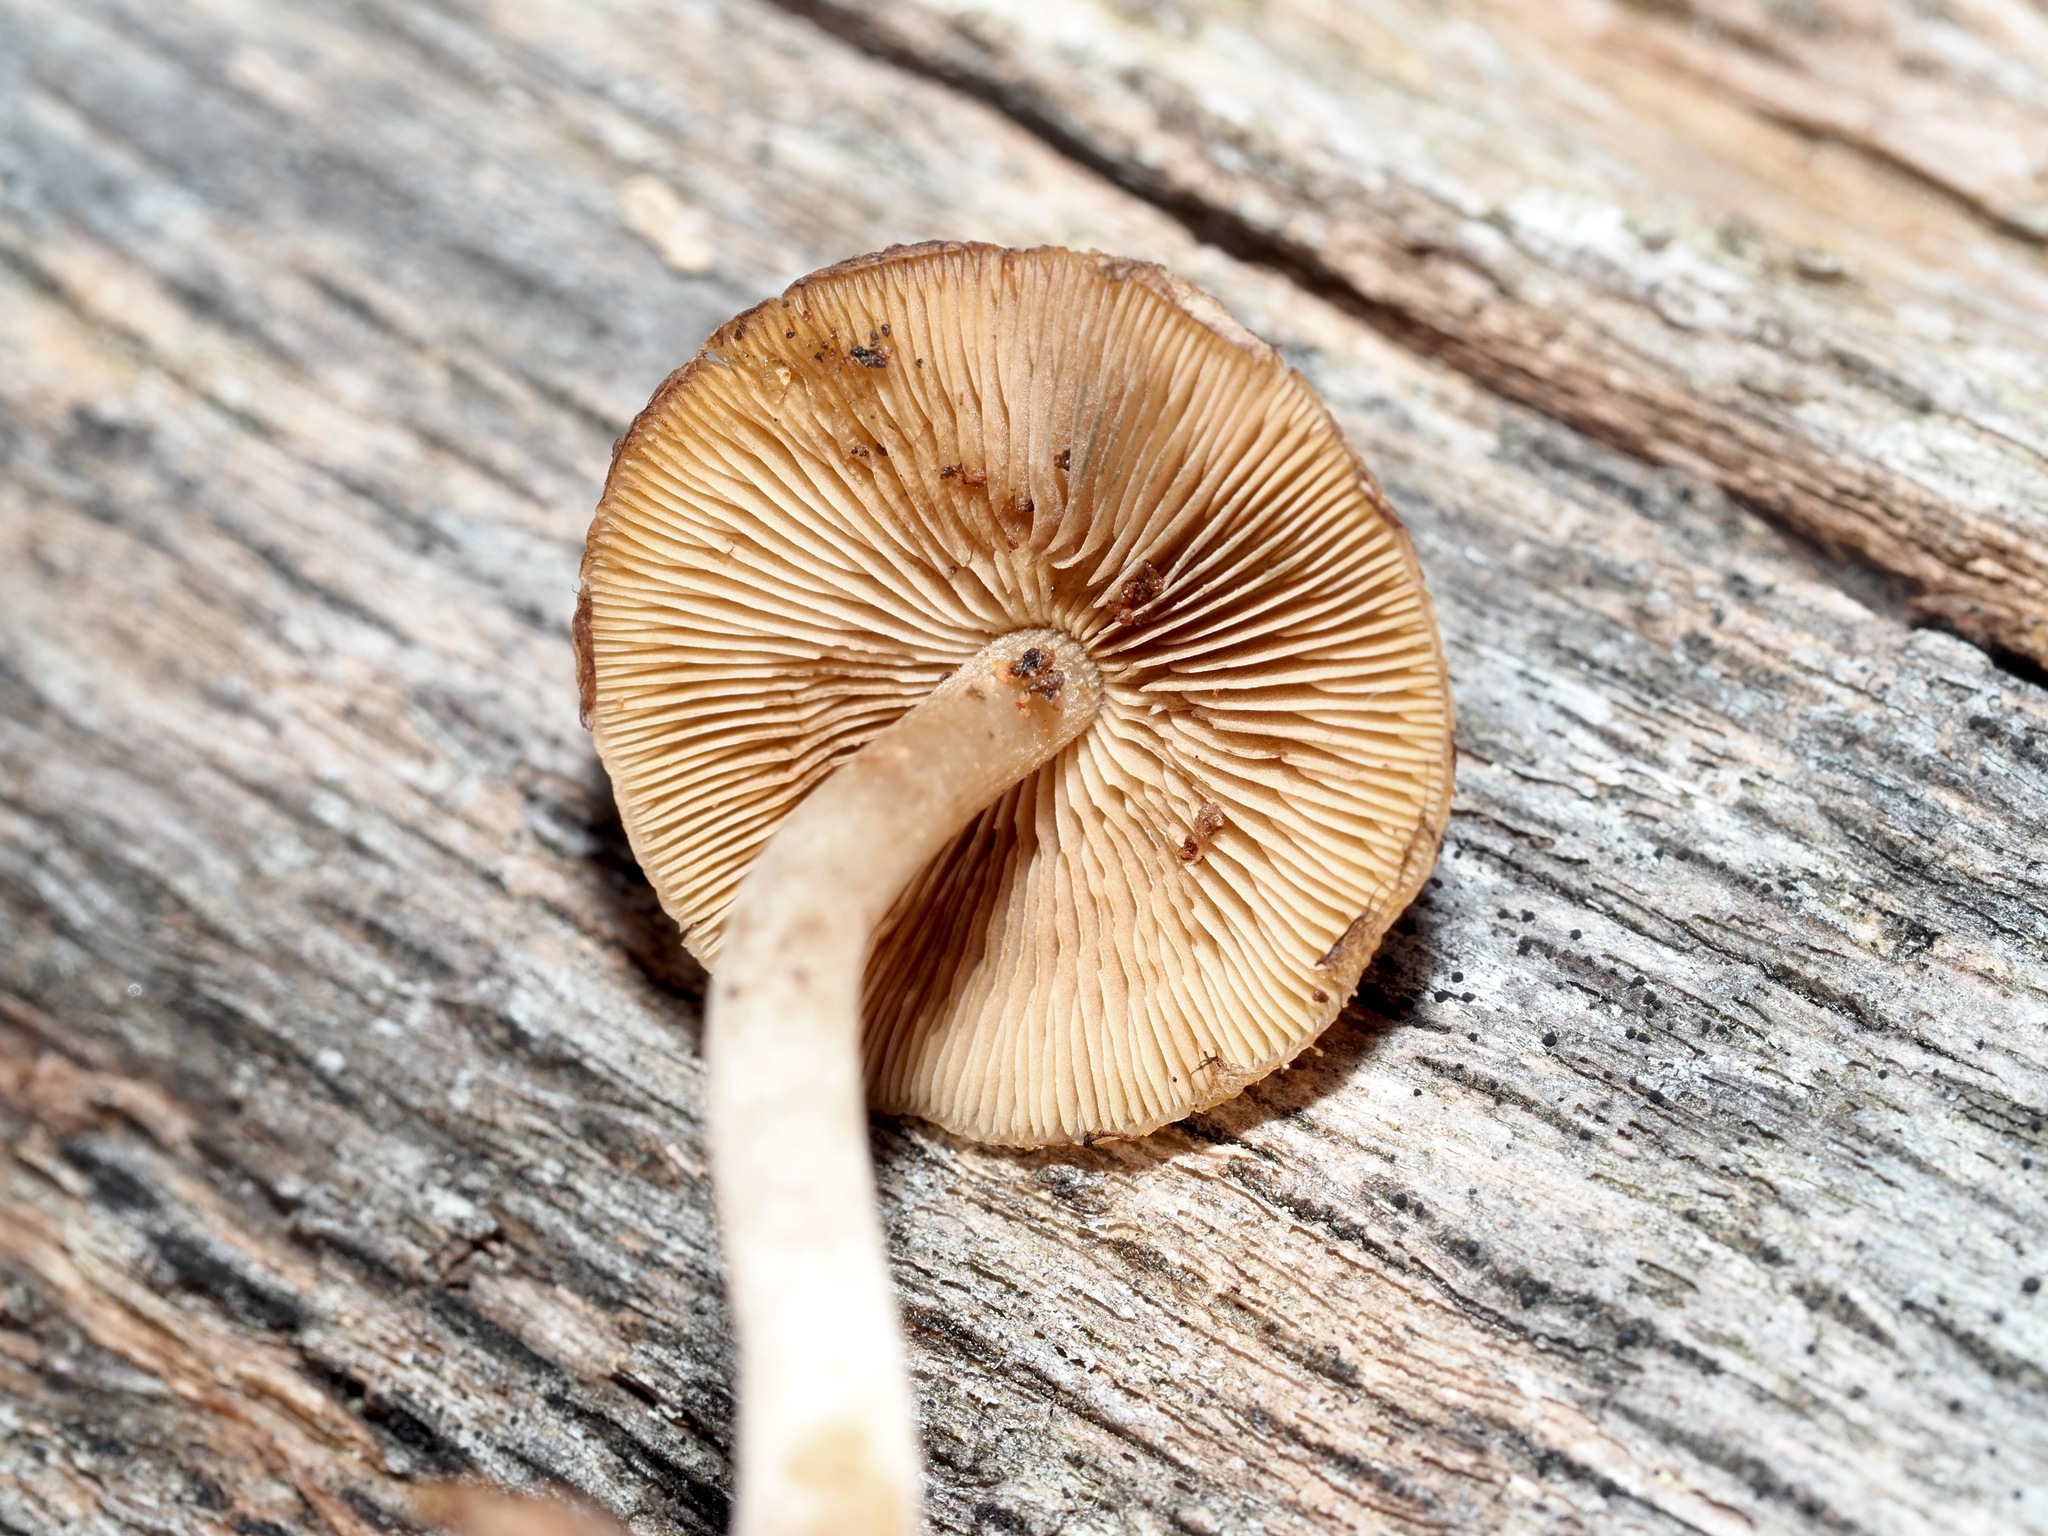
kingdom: Fungi
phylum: Basidiomycota
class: Agaricomycetes
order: Agaricales
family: Psathyrellaceae
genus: Psathyrella
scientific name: Psathyrella piluliformis
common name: Common stump brittlestem
